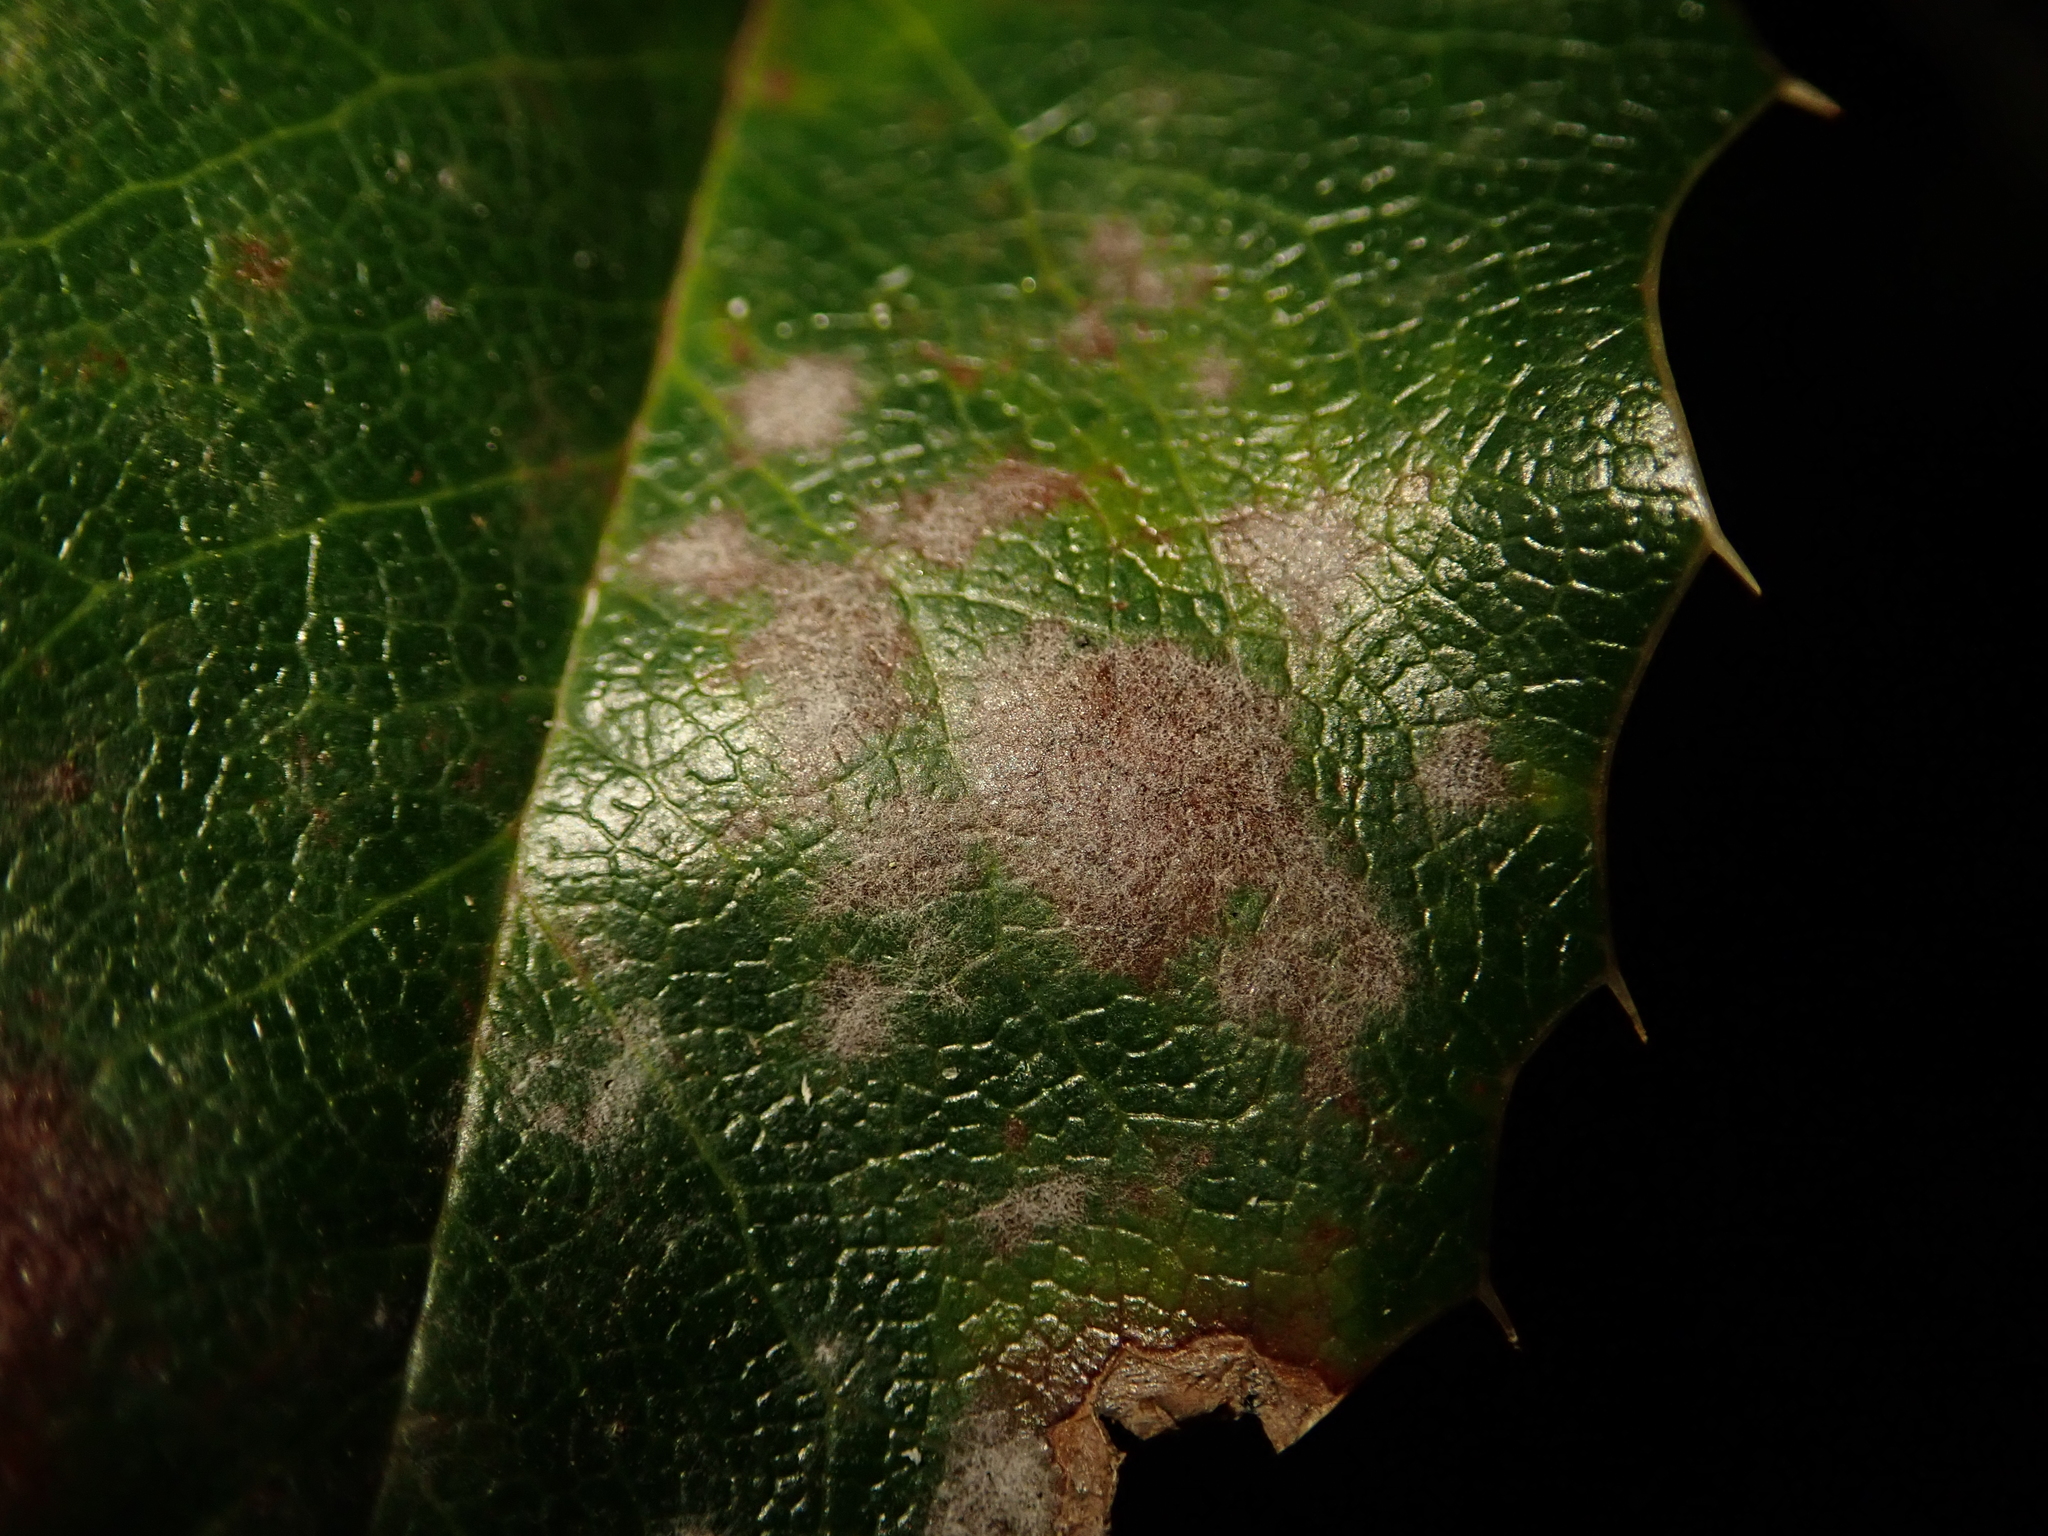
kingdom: Fungi
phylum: Ascomycota
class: Leotiomycetes
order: Helotiales
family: Erysiphaceae
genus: Erysiphe
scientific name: Erysiphe berberidis
